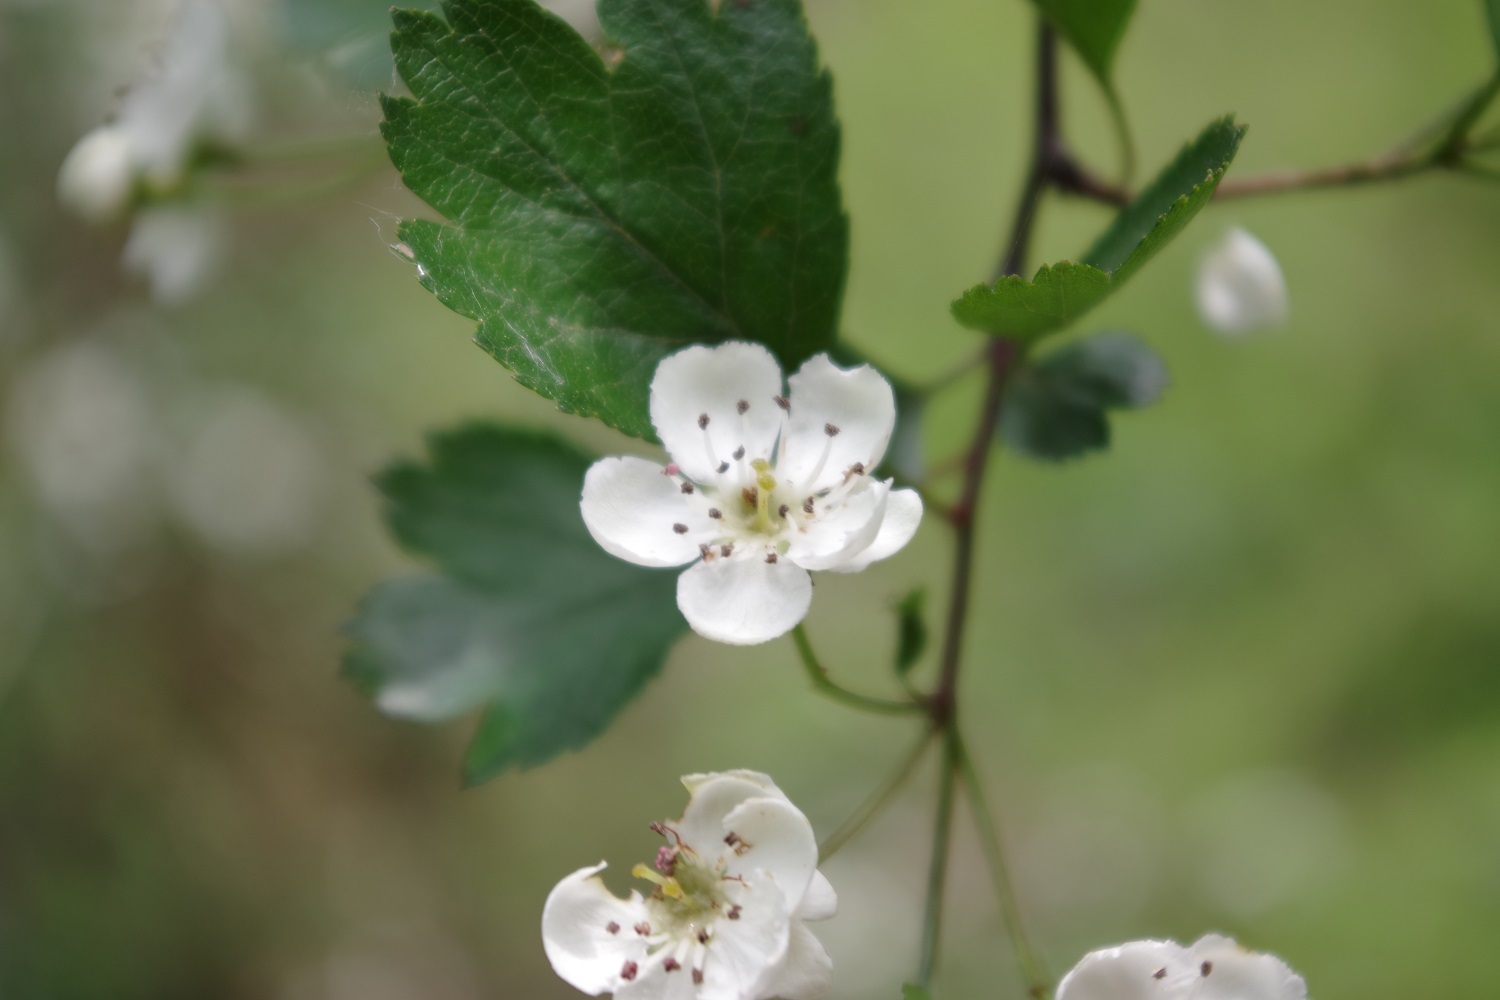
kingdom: Plantae
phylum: Tracheophyta
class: Magnoliopsida
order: Rosales
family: Rosaceae
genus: Crataegus
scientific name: Crataegus laevigata
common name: Midland hawthorn
